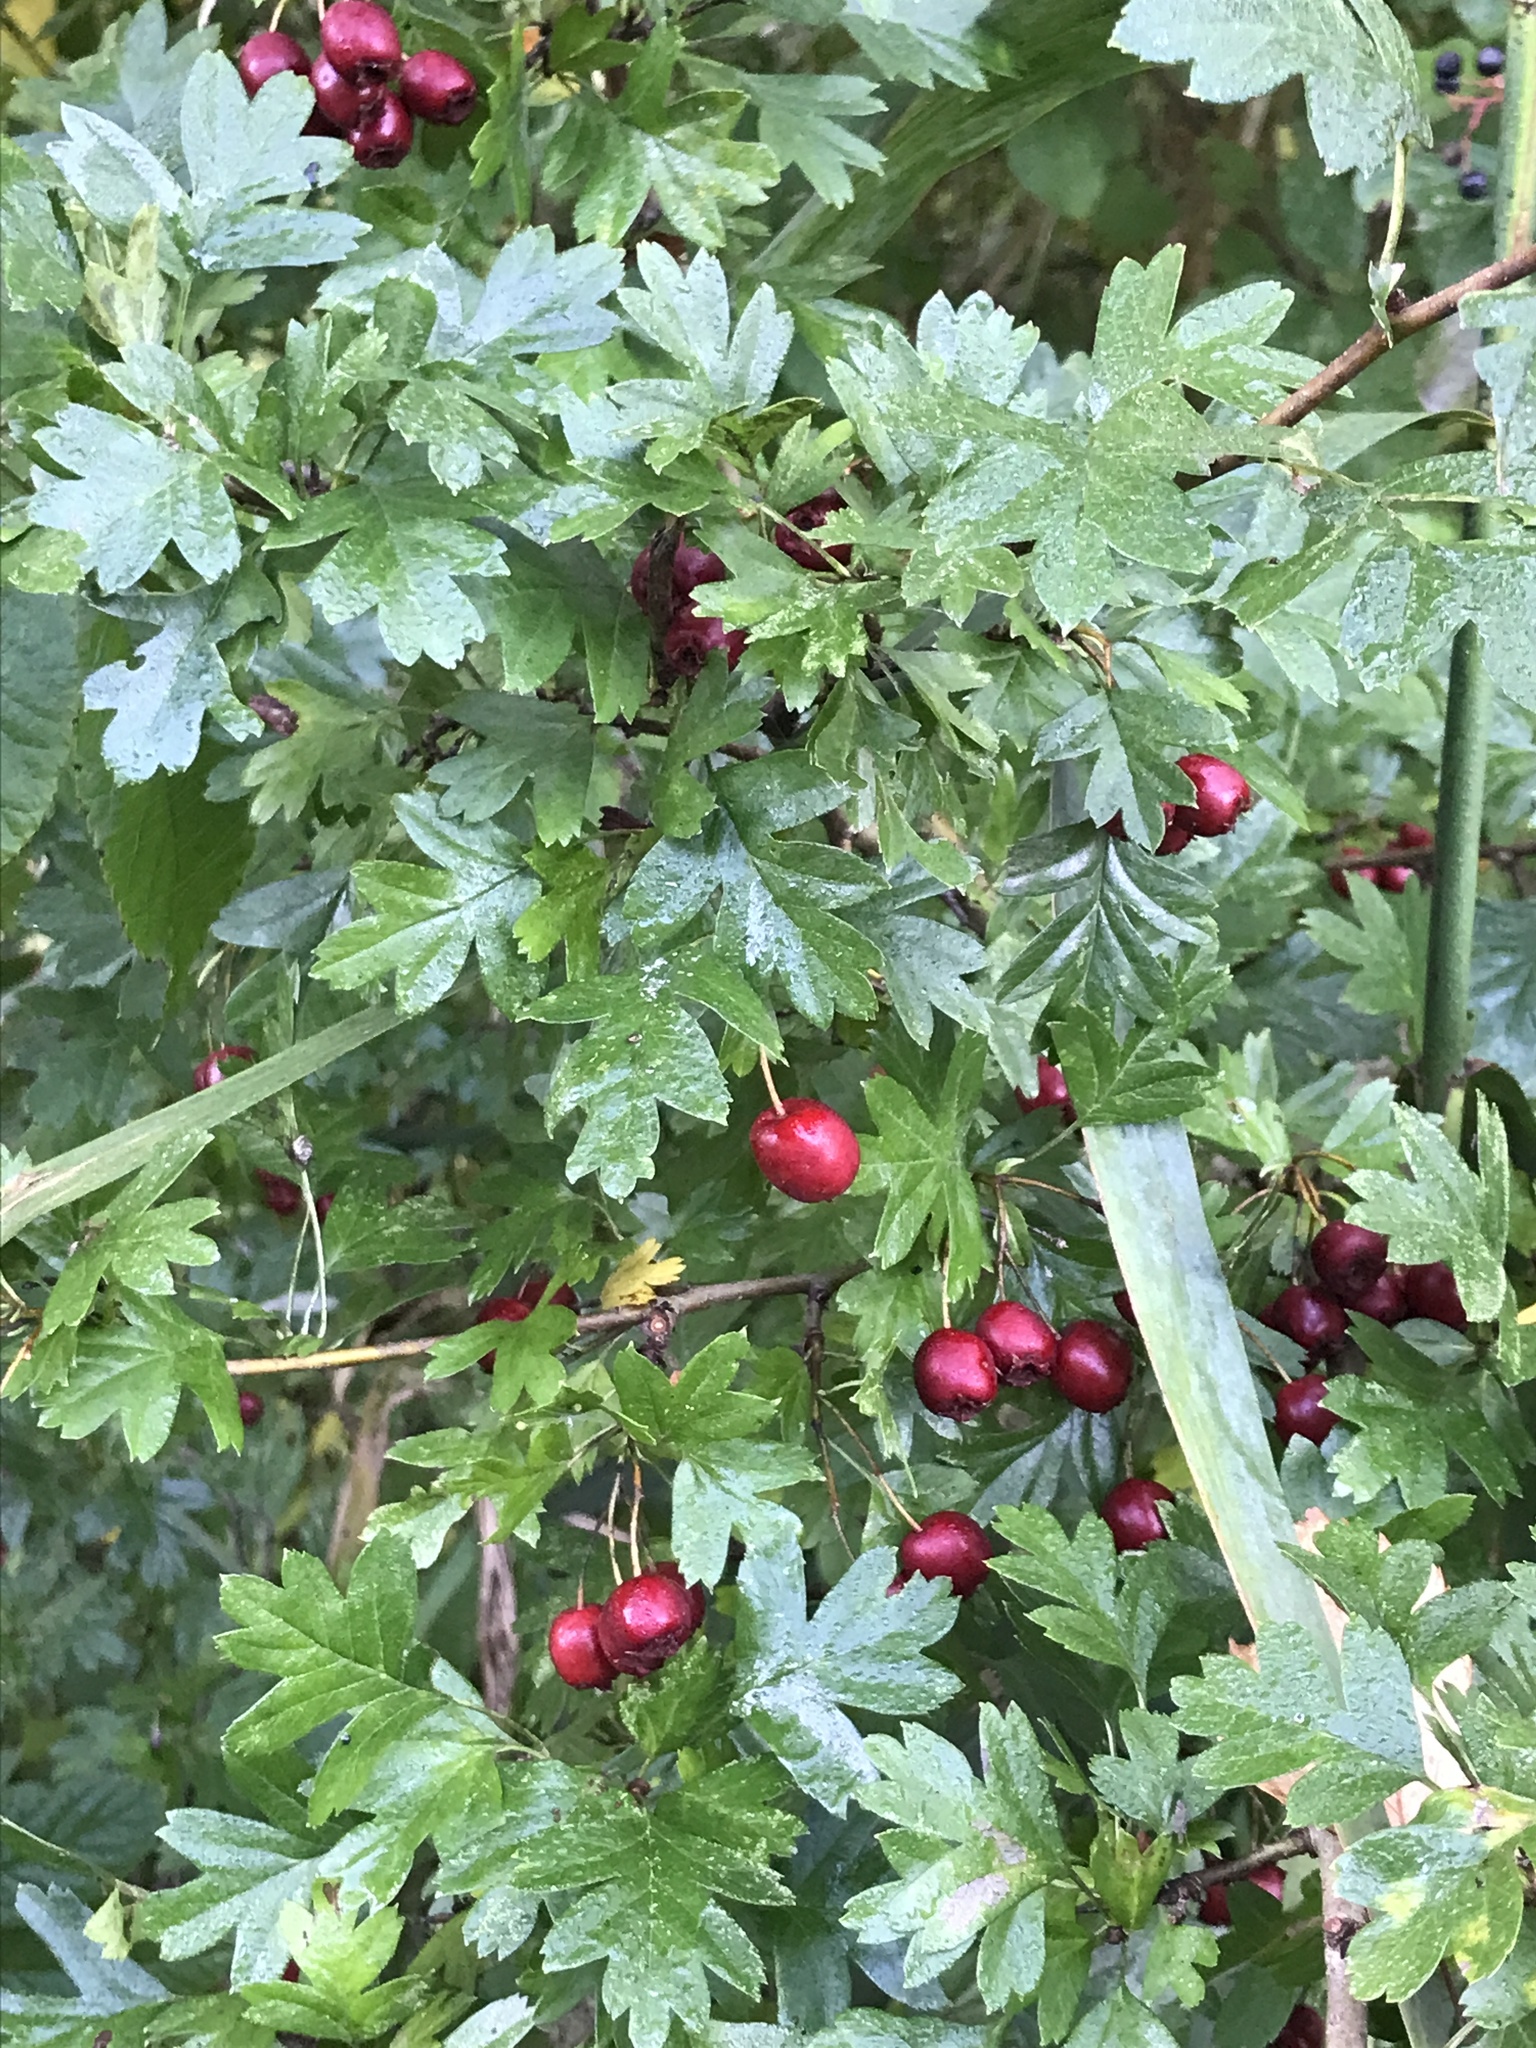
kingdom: Plantae
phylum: Tracheophyta
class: Magnoliopsida
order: Rosales
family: Rosaceae
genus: Crataegus
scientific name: Crataegus monogyna
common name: Hawthorn
